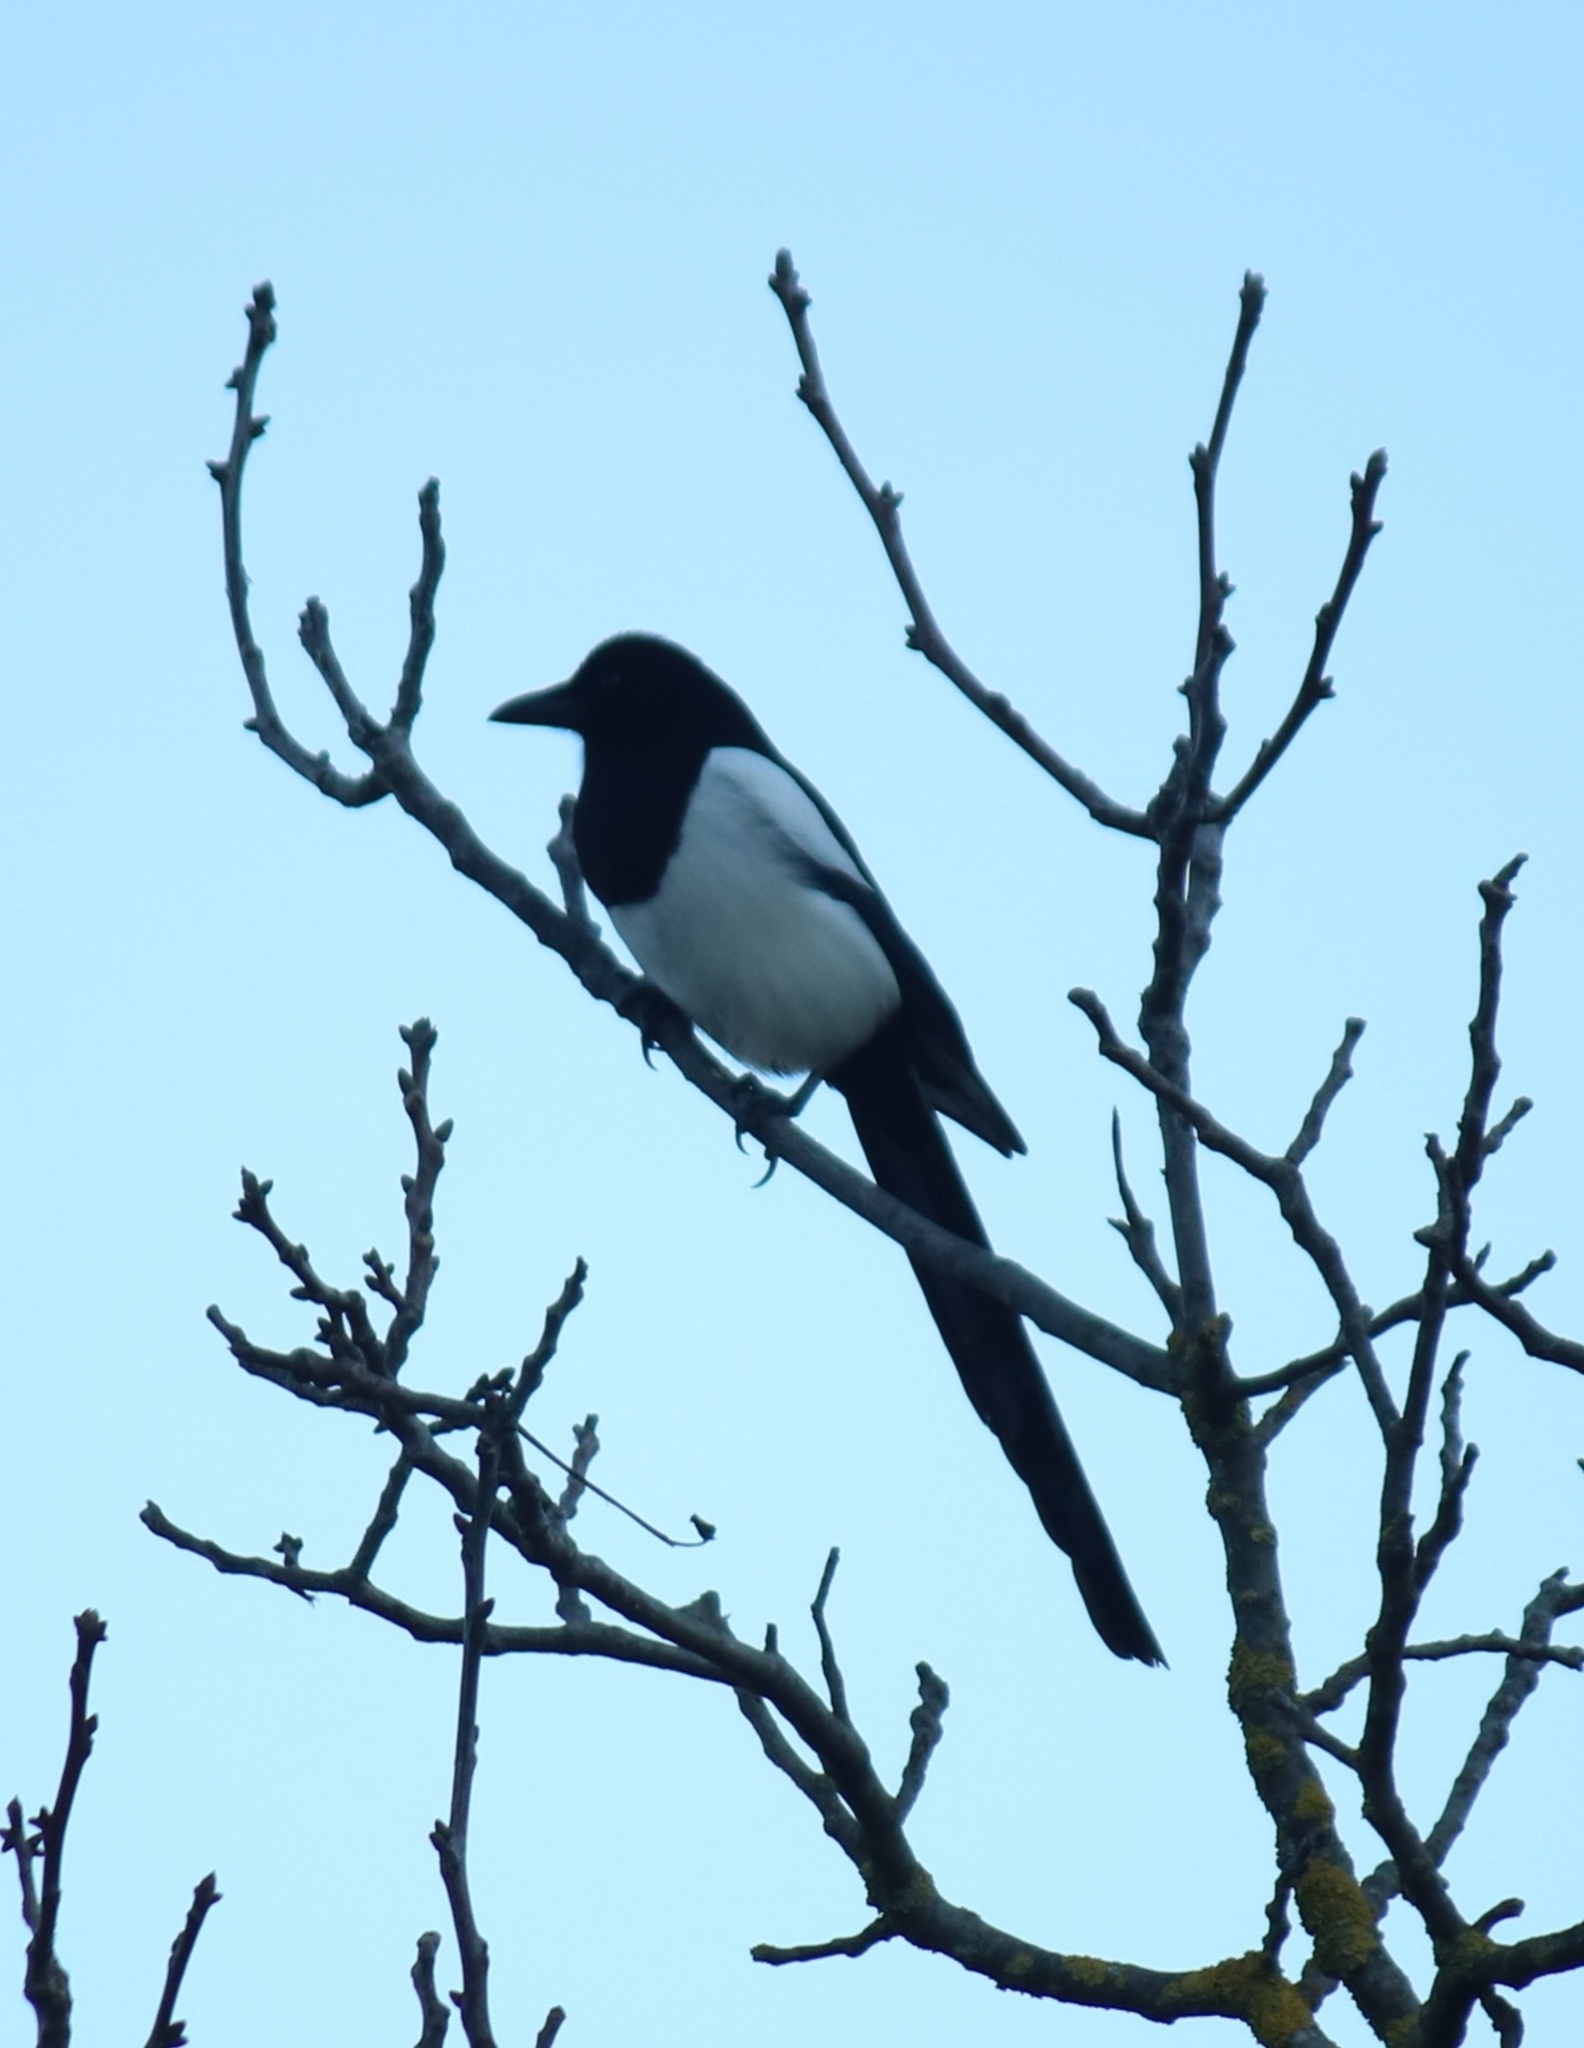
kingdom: Animalia
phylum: Chordata
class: Aves
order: Passeriformes
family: Corvidae
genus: Pica
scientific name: Pica pica
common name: Eurasian magpie
